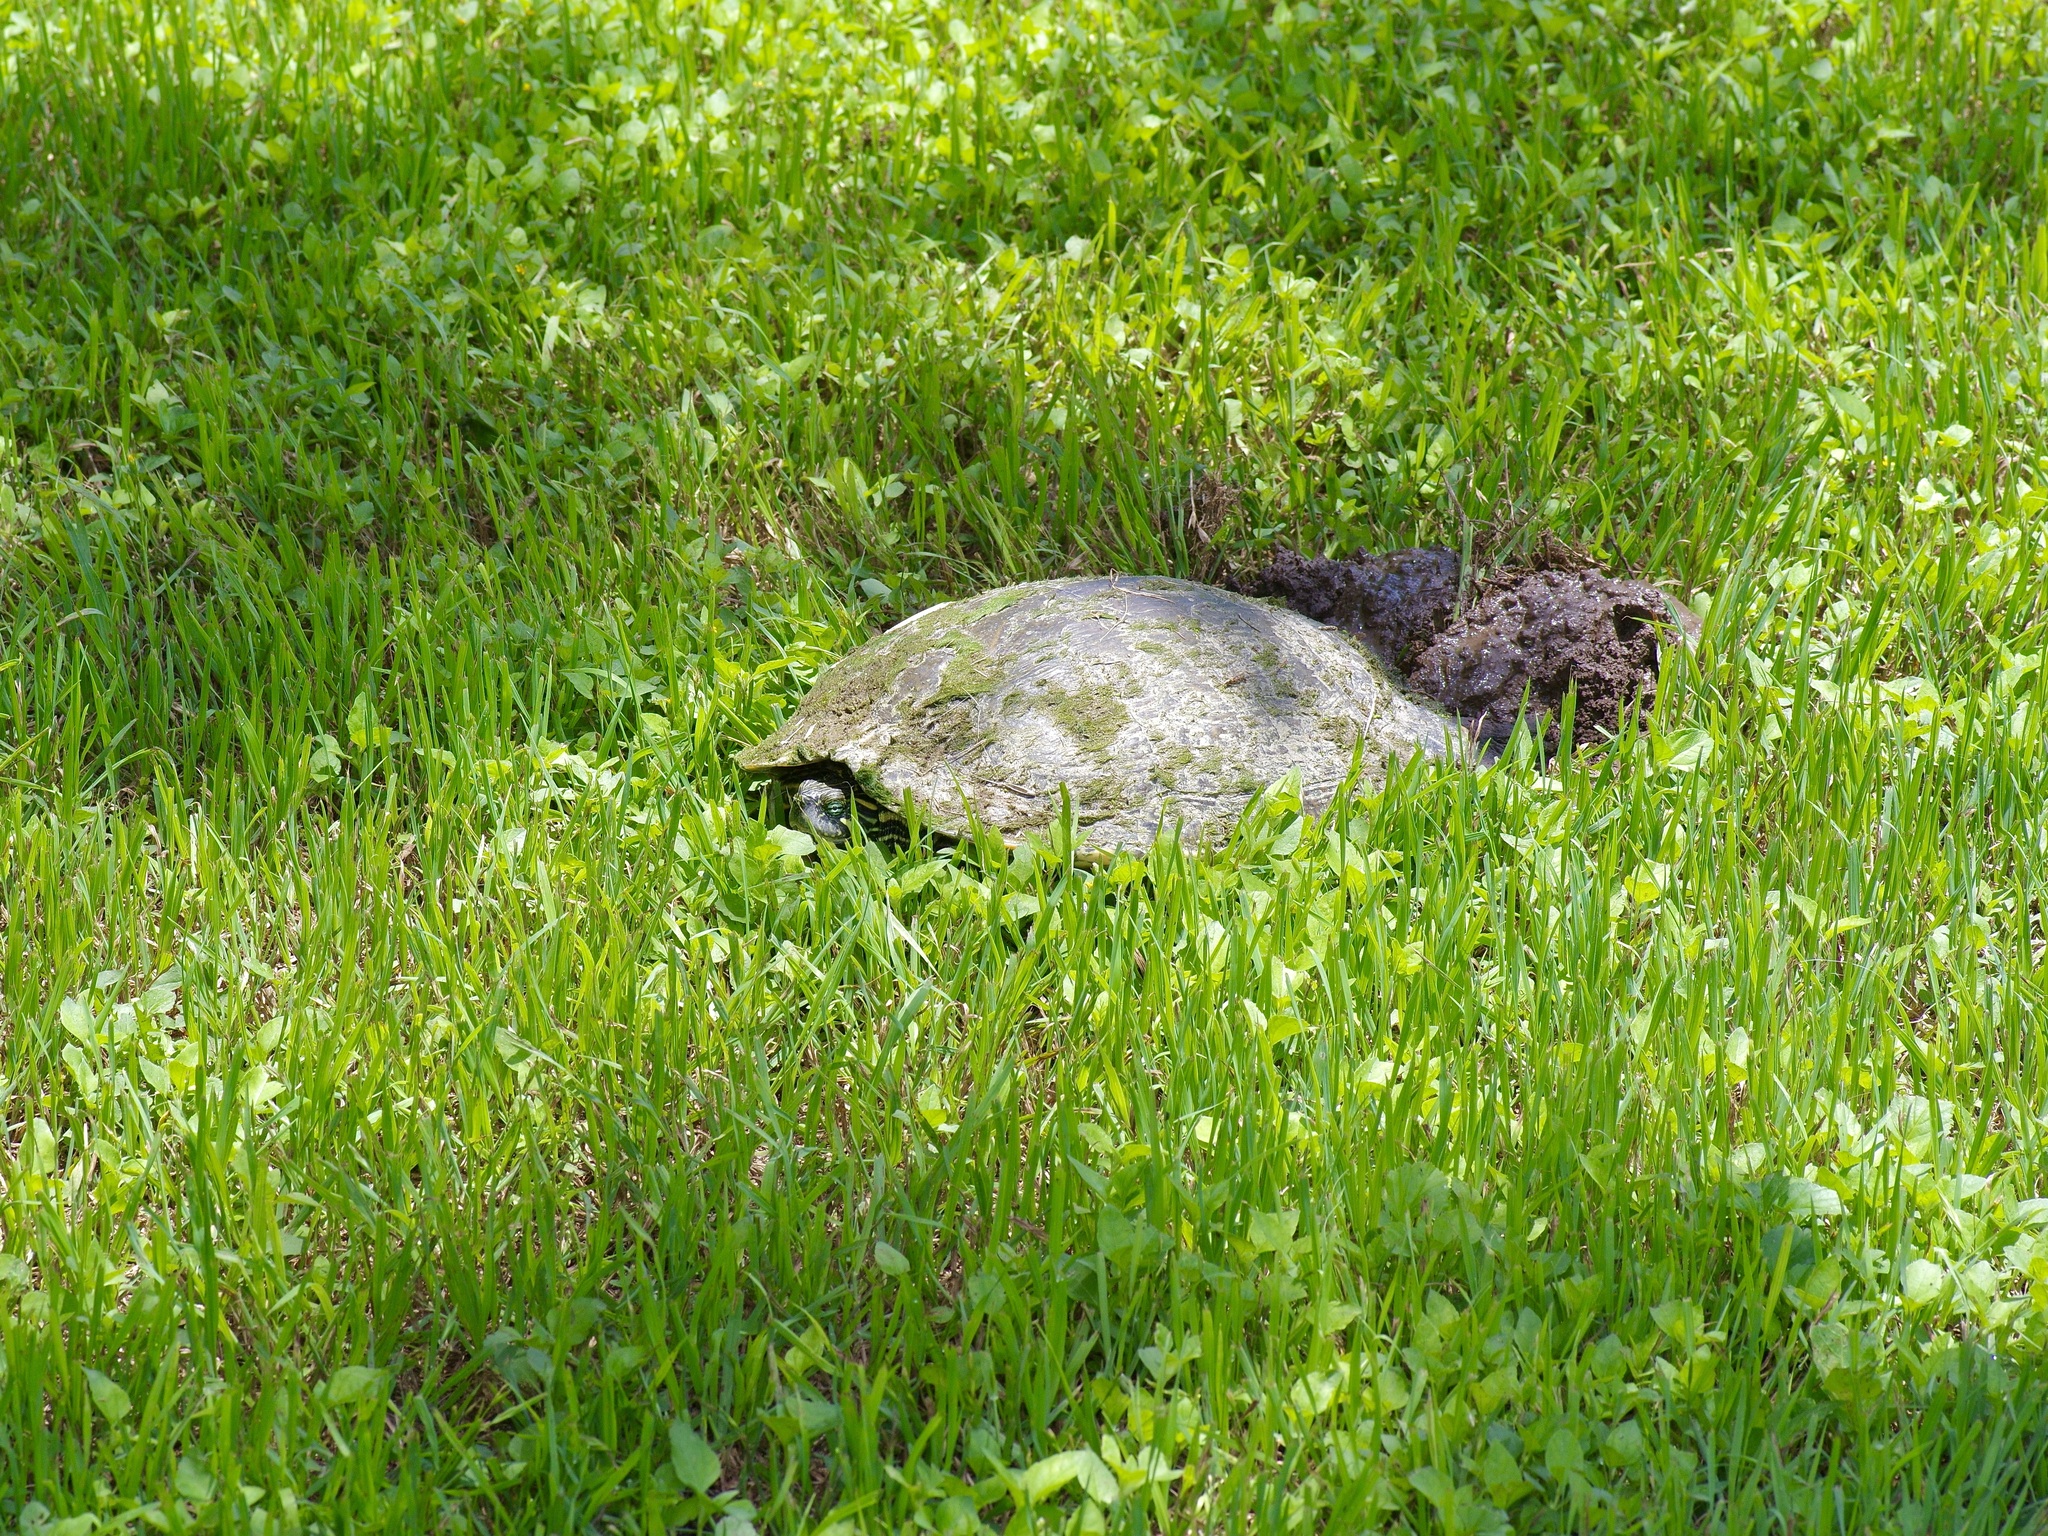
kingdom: Animalia
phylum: Chordata
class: Testudines
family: Emydidae
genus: Pseudemys
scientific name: Pseudemys texana
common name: Texas river cooter
